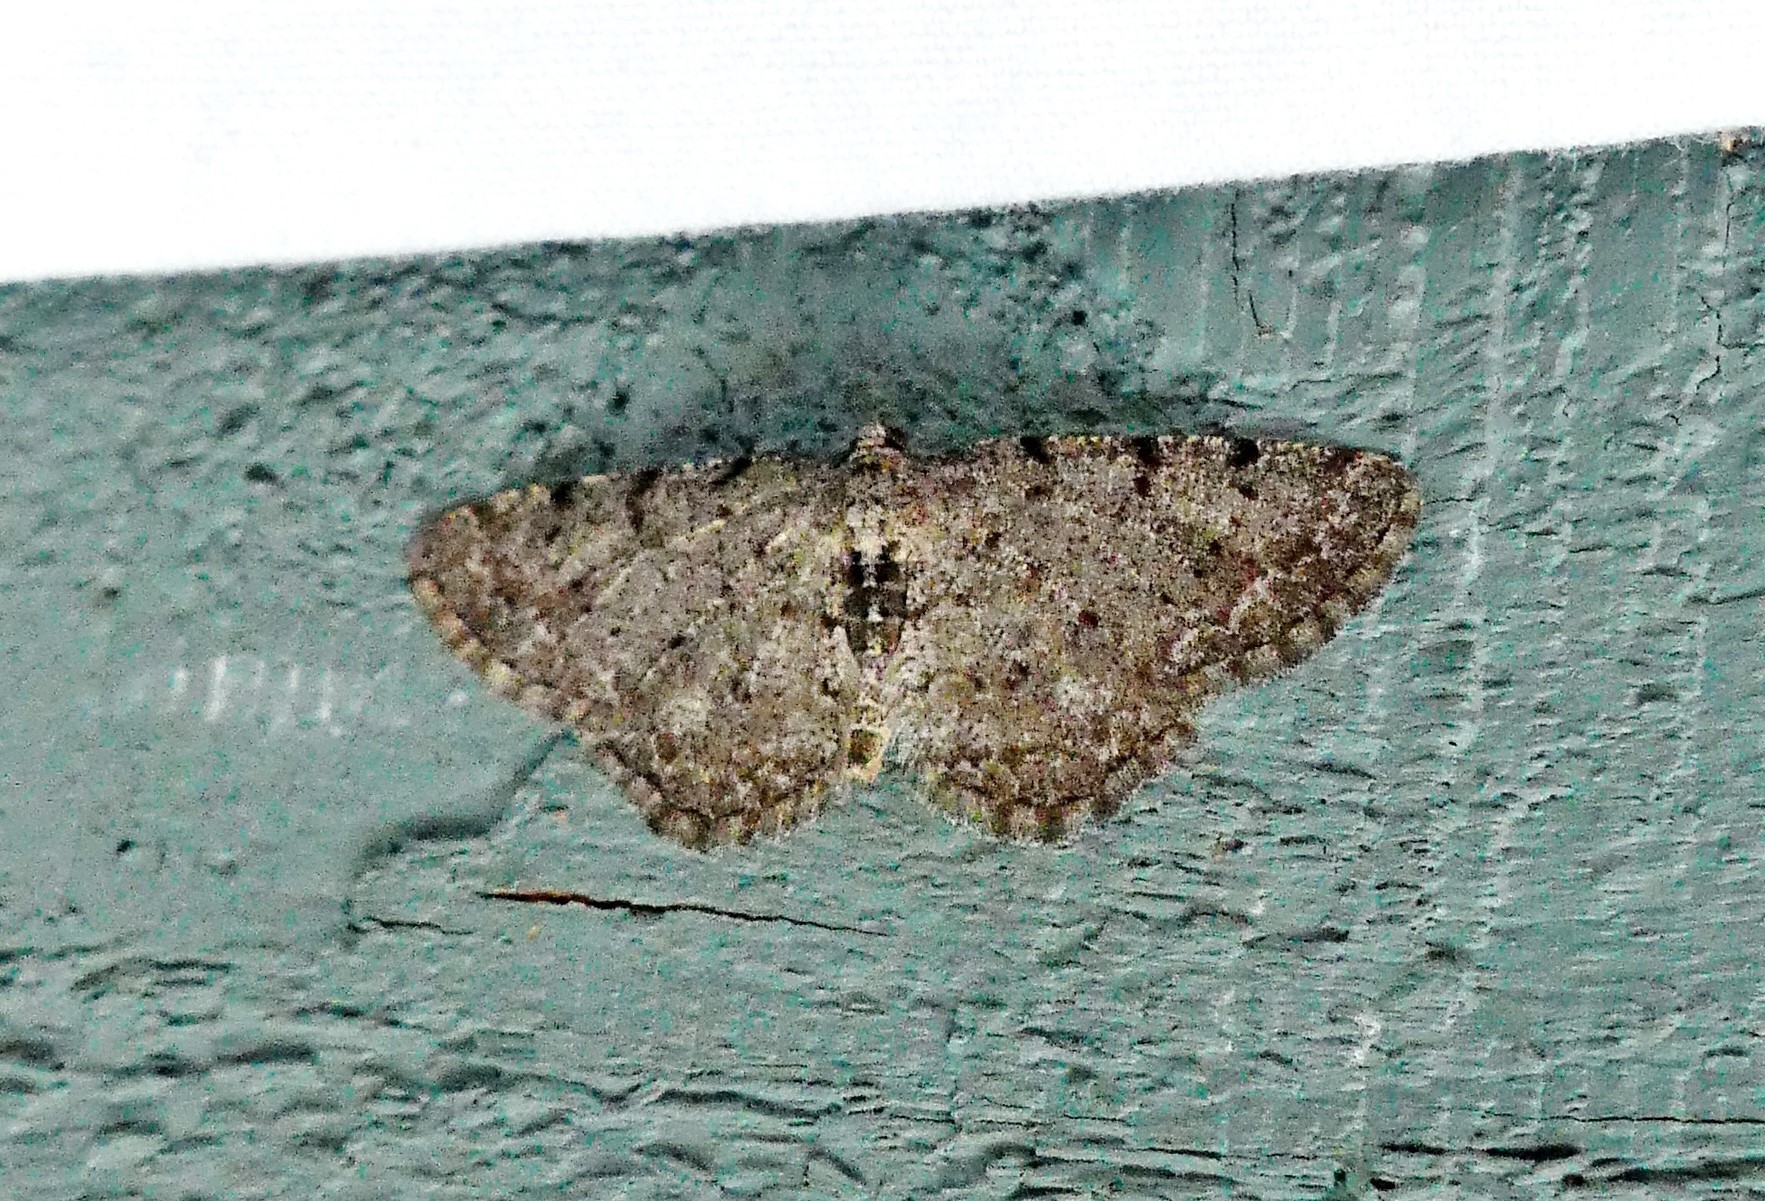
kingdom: Animalia
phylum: Arthropoda
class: Insecta
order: Lepidoptera
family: Geometridae
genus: Aethalura
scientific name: Aethalura intertexta
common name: Four-barred gray
